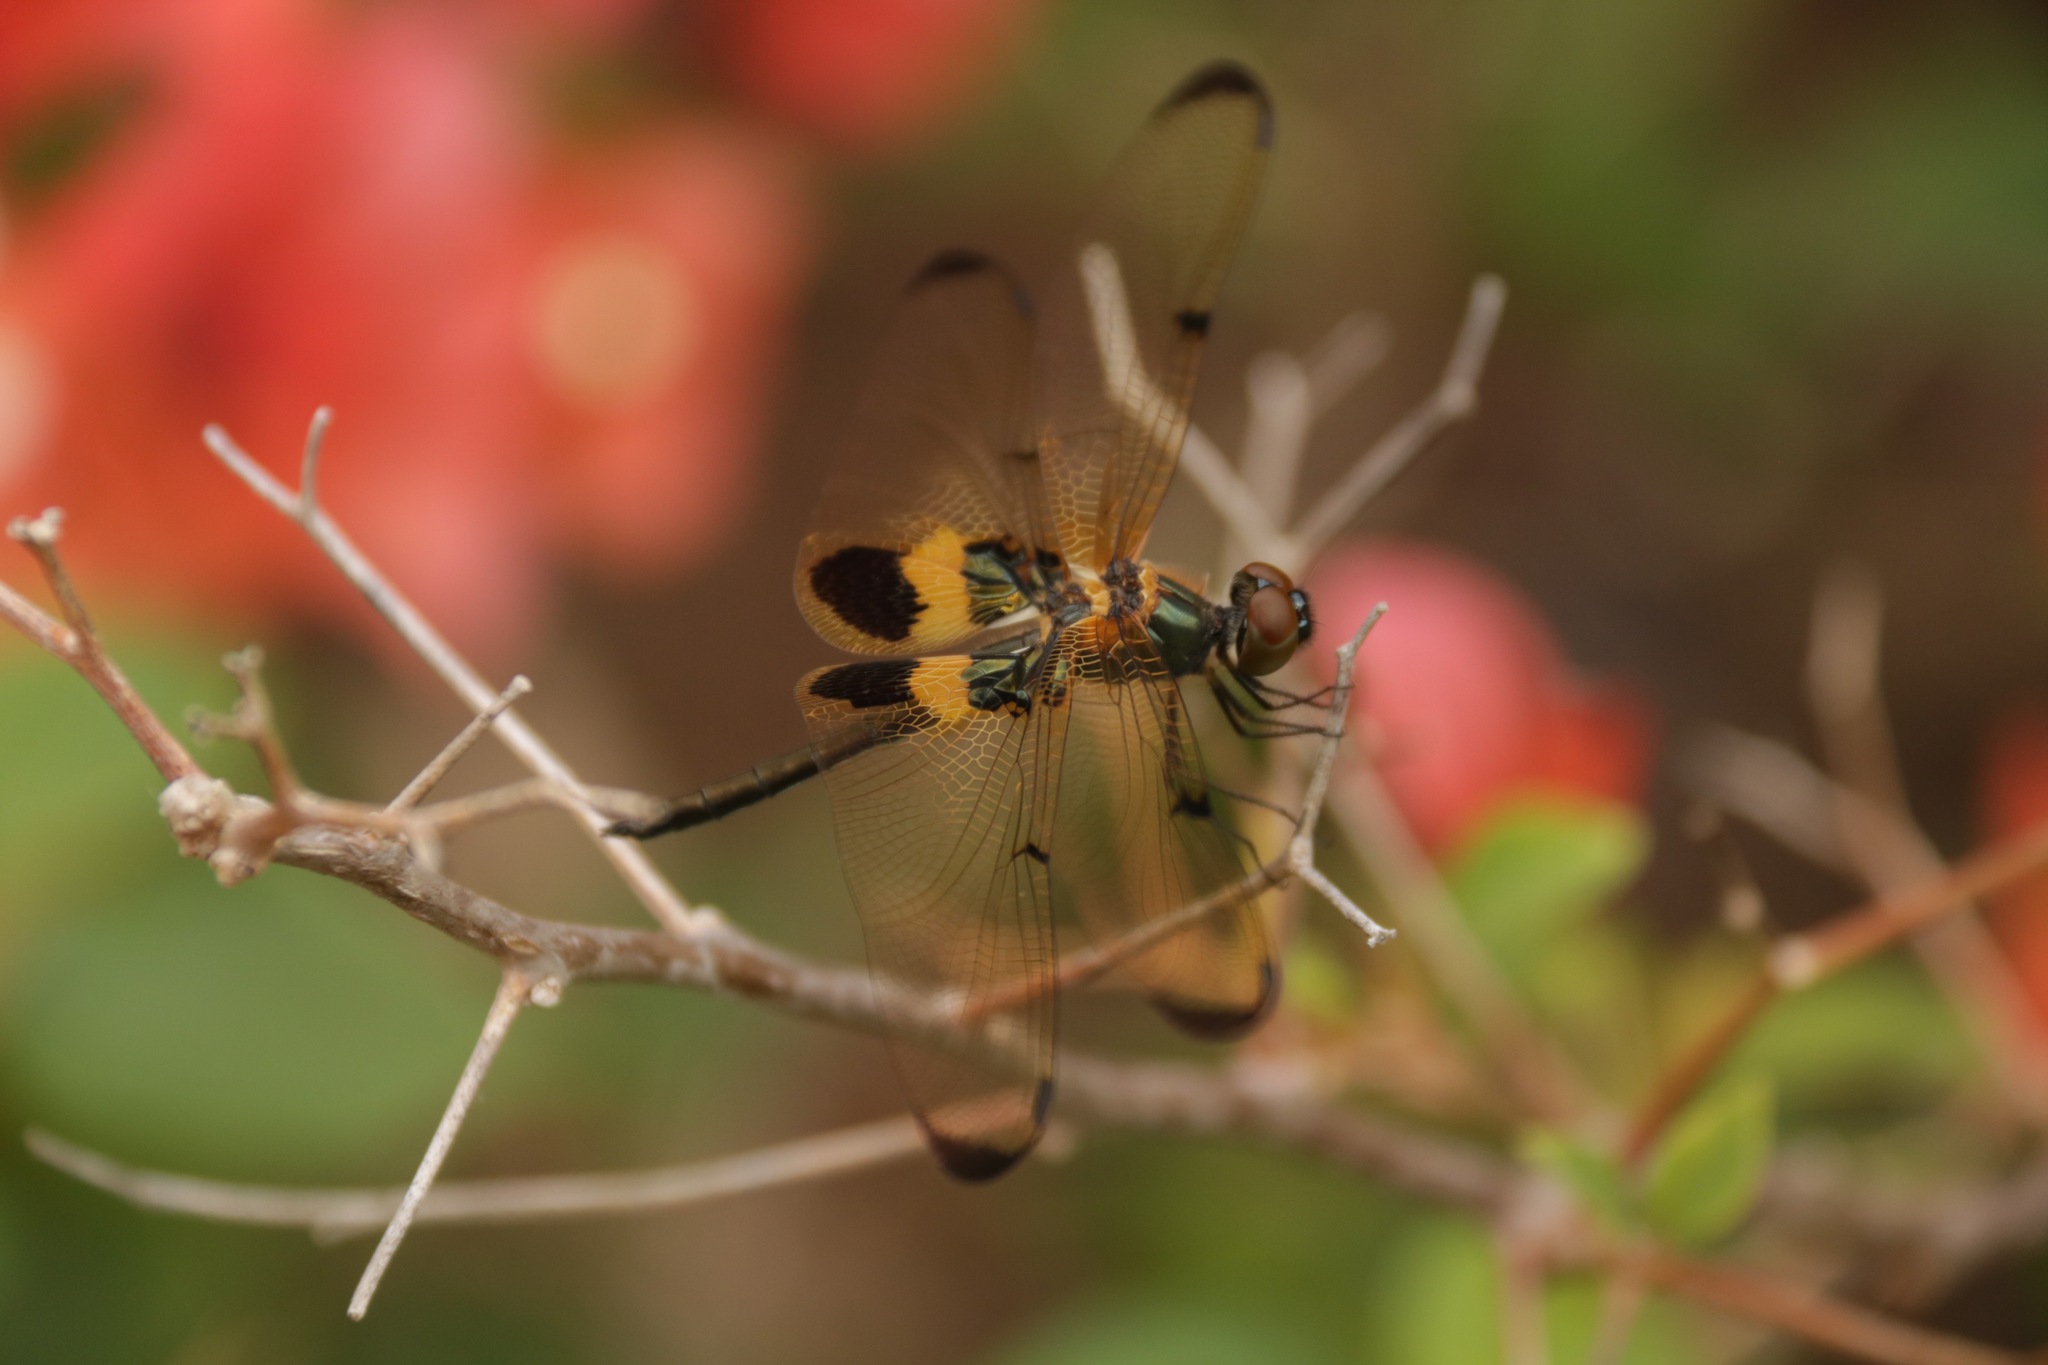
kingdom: Animalia
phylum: Arthropoda
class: Insecta
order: Odonata
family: Libellulidae
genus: Rhyothemis
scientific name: Rhyothemis phyllis
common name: Yellow-barred flutterer
